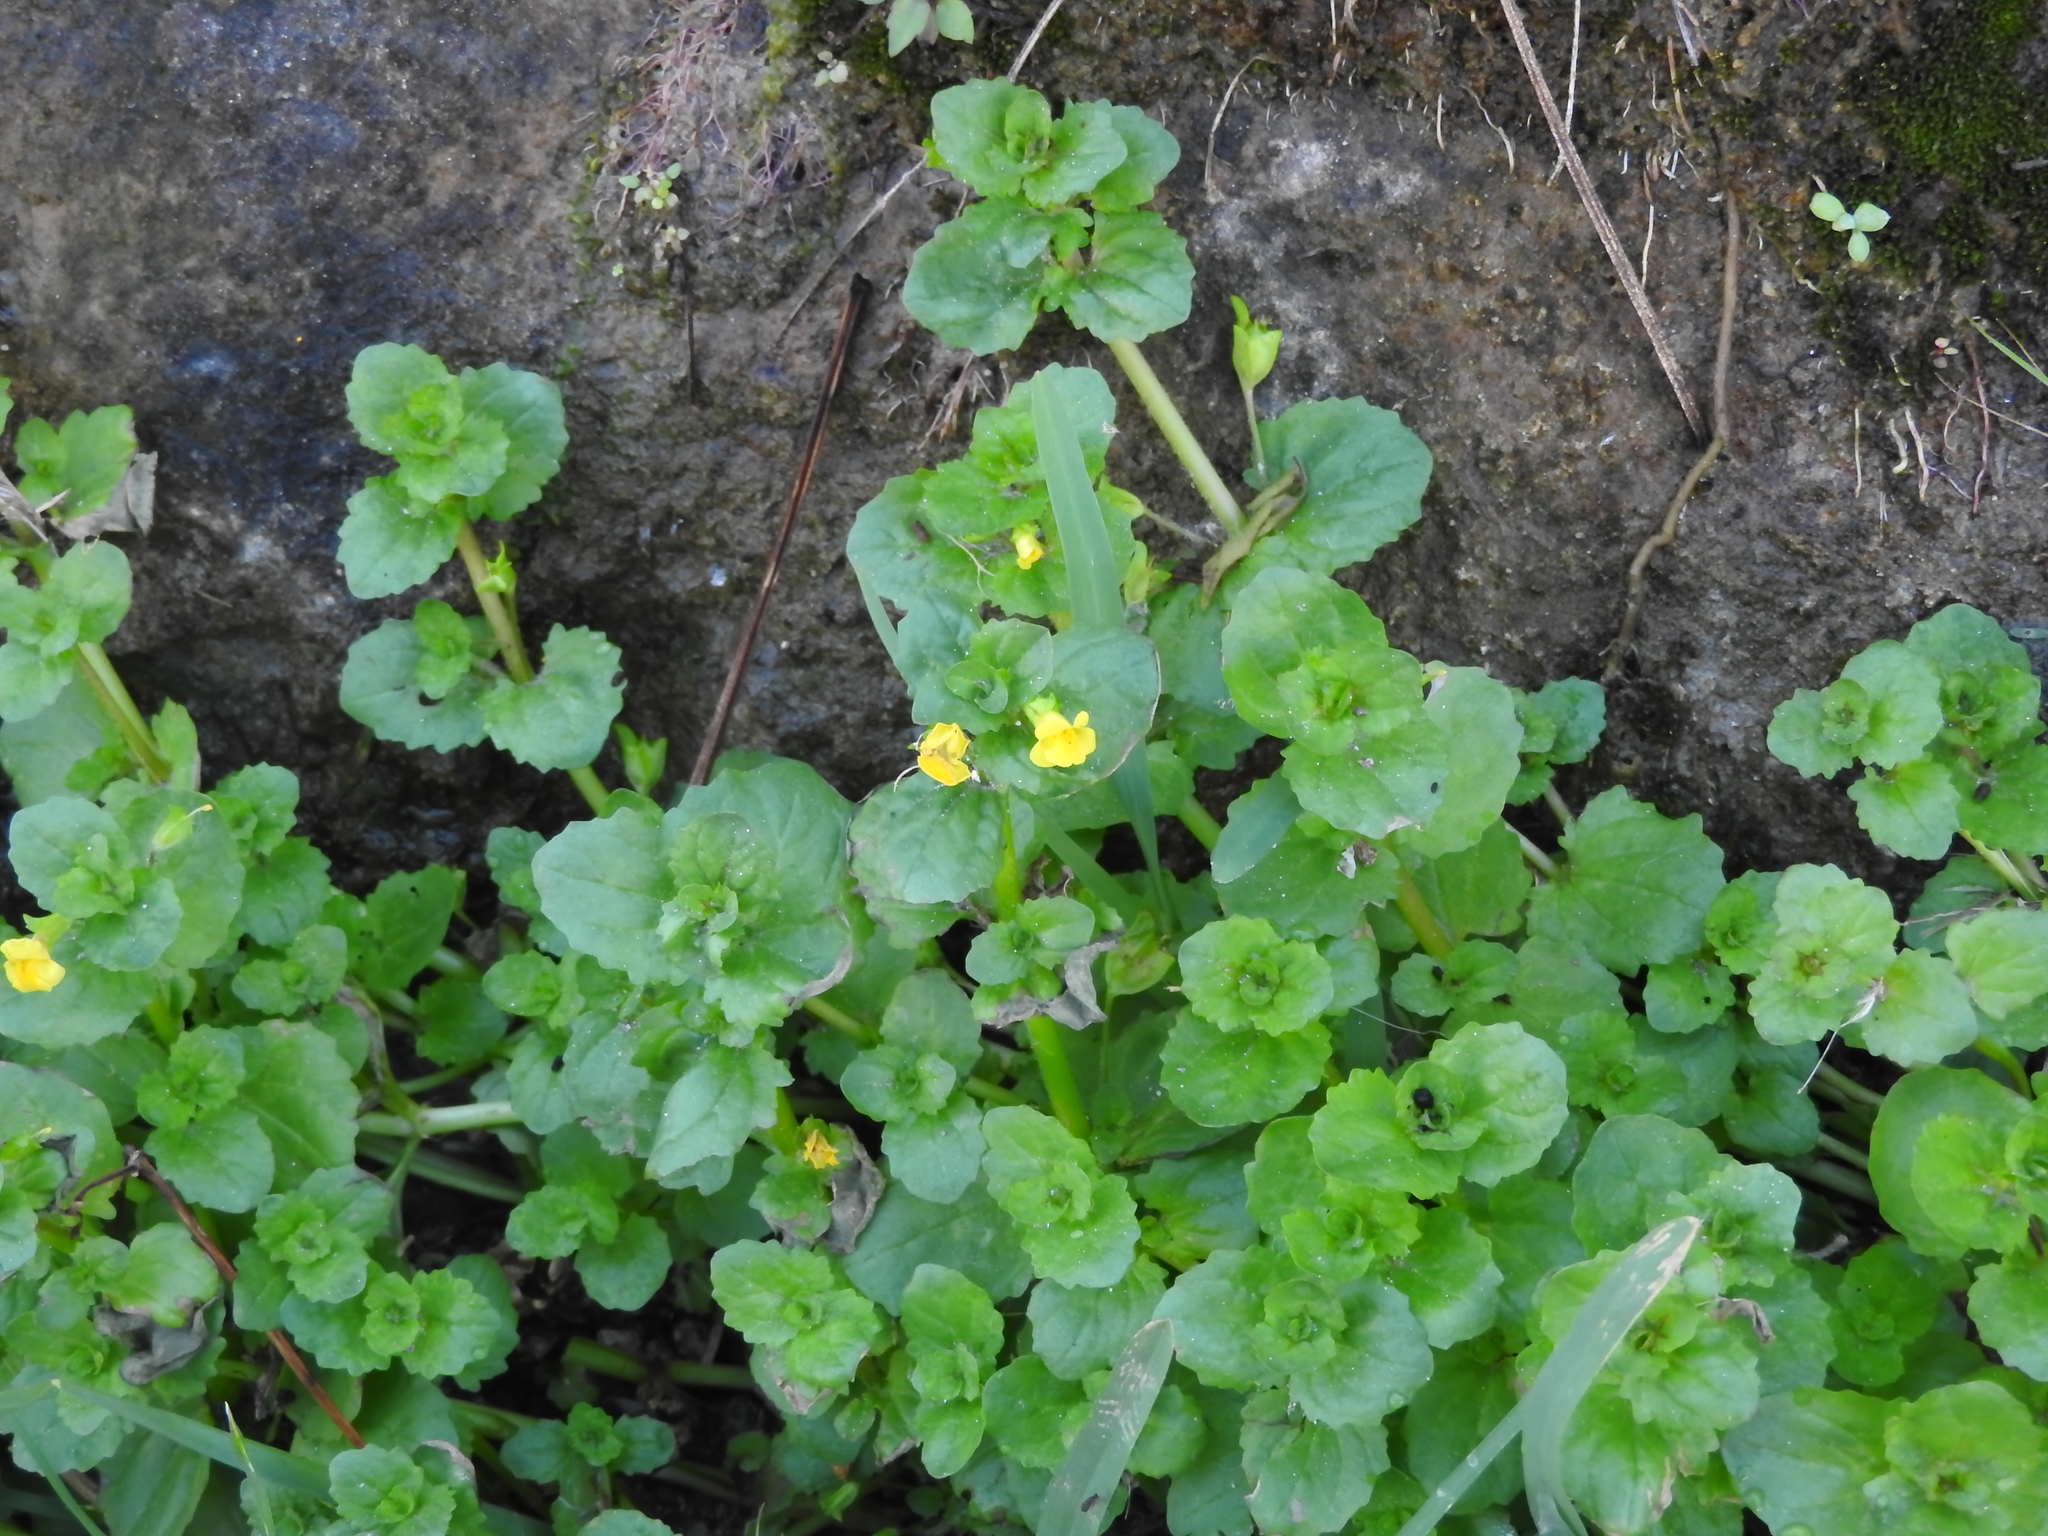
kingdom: Plantae
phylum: Tracheophyta
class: Magnoliopsida
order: Lamiales
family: Phrymaceae
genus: Erythranthe
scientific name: Erythranthe glabrata
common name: Round-leaved monkeyflower
